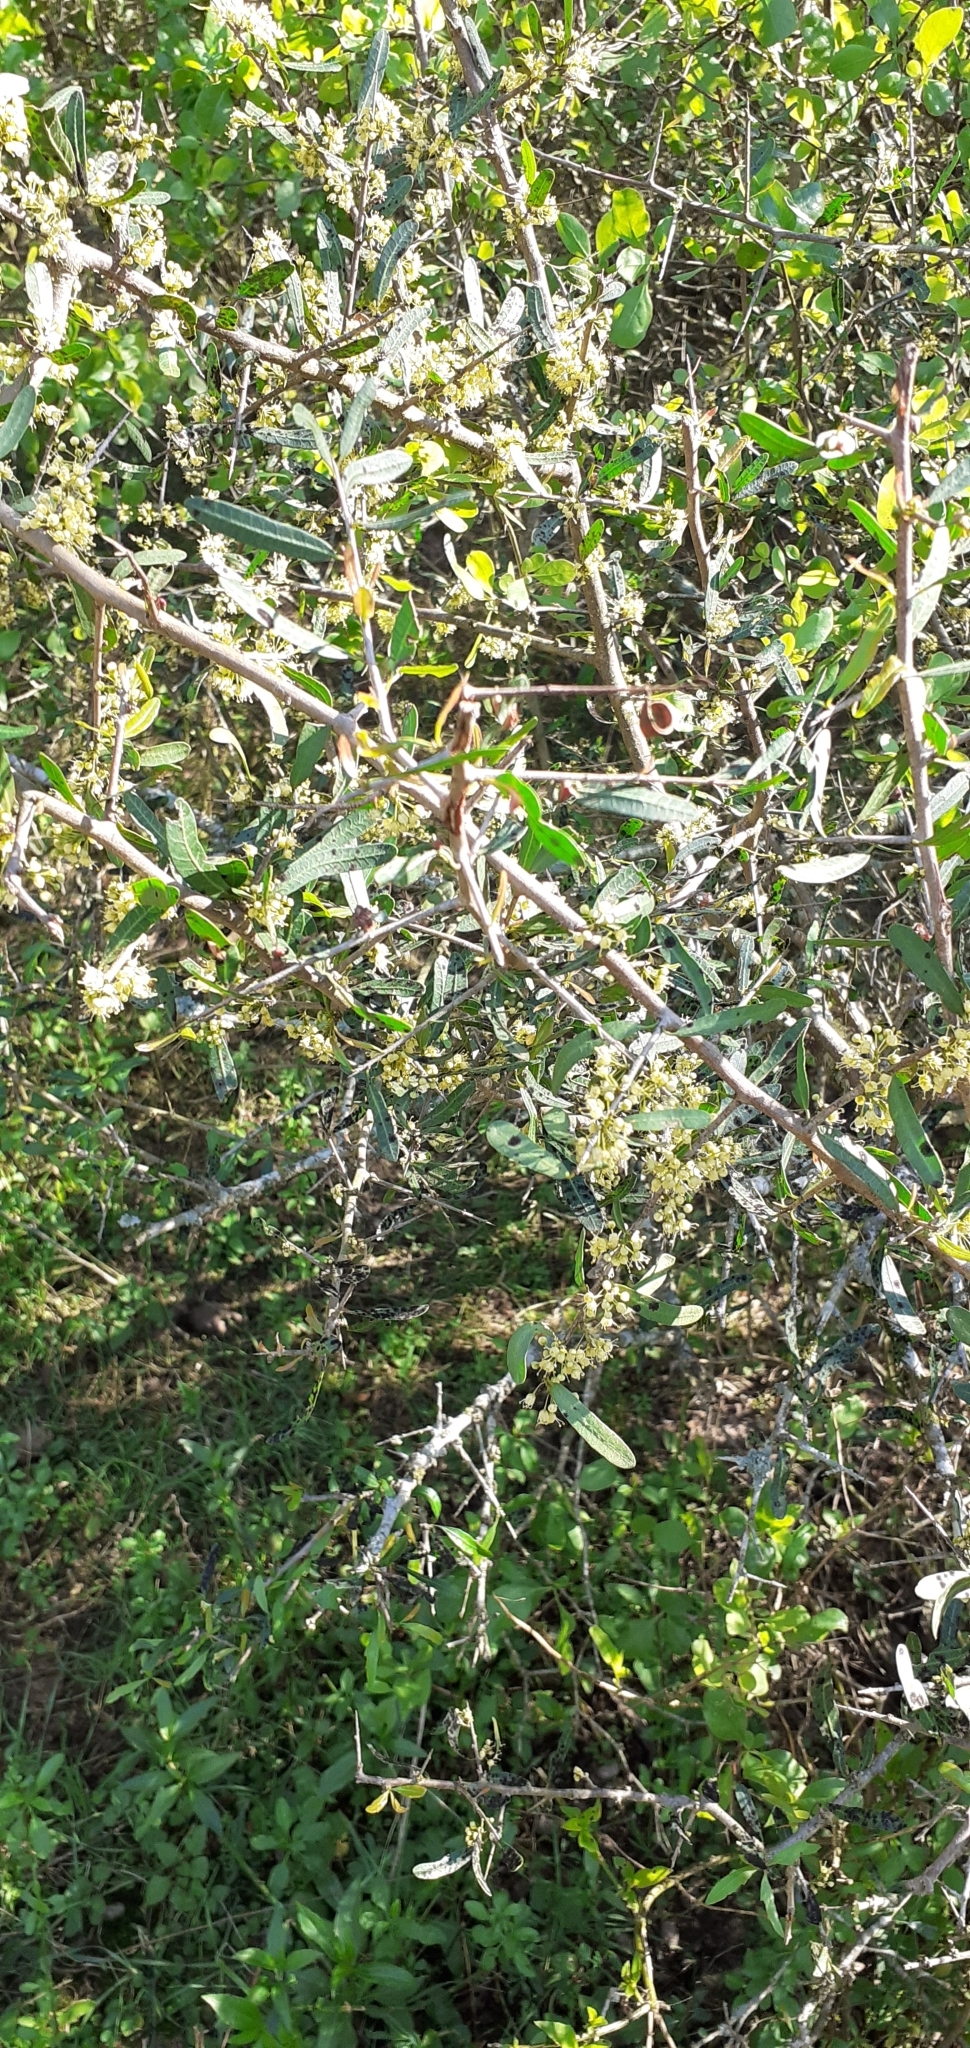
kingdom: Plantae
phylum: Tracheophyta
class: Magnoliopsida
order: Sapindales
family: Anacardiaceae
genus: Schinus
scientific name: Schinus longifolia
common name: Longleaf peppertree
